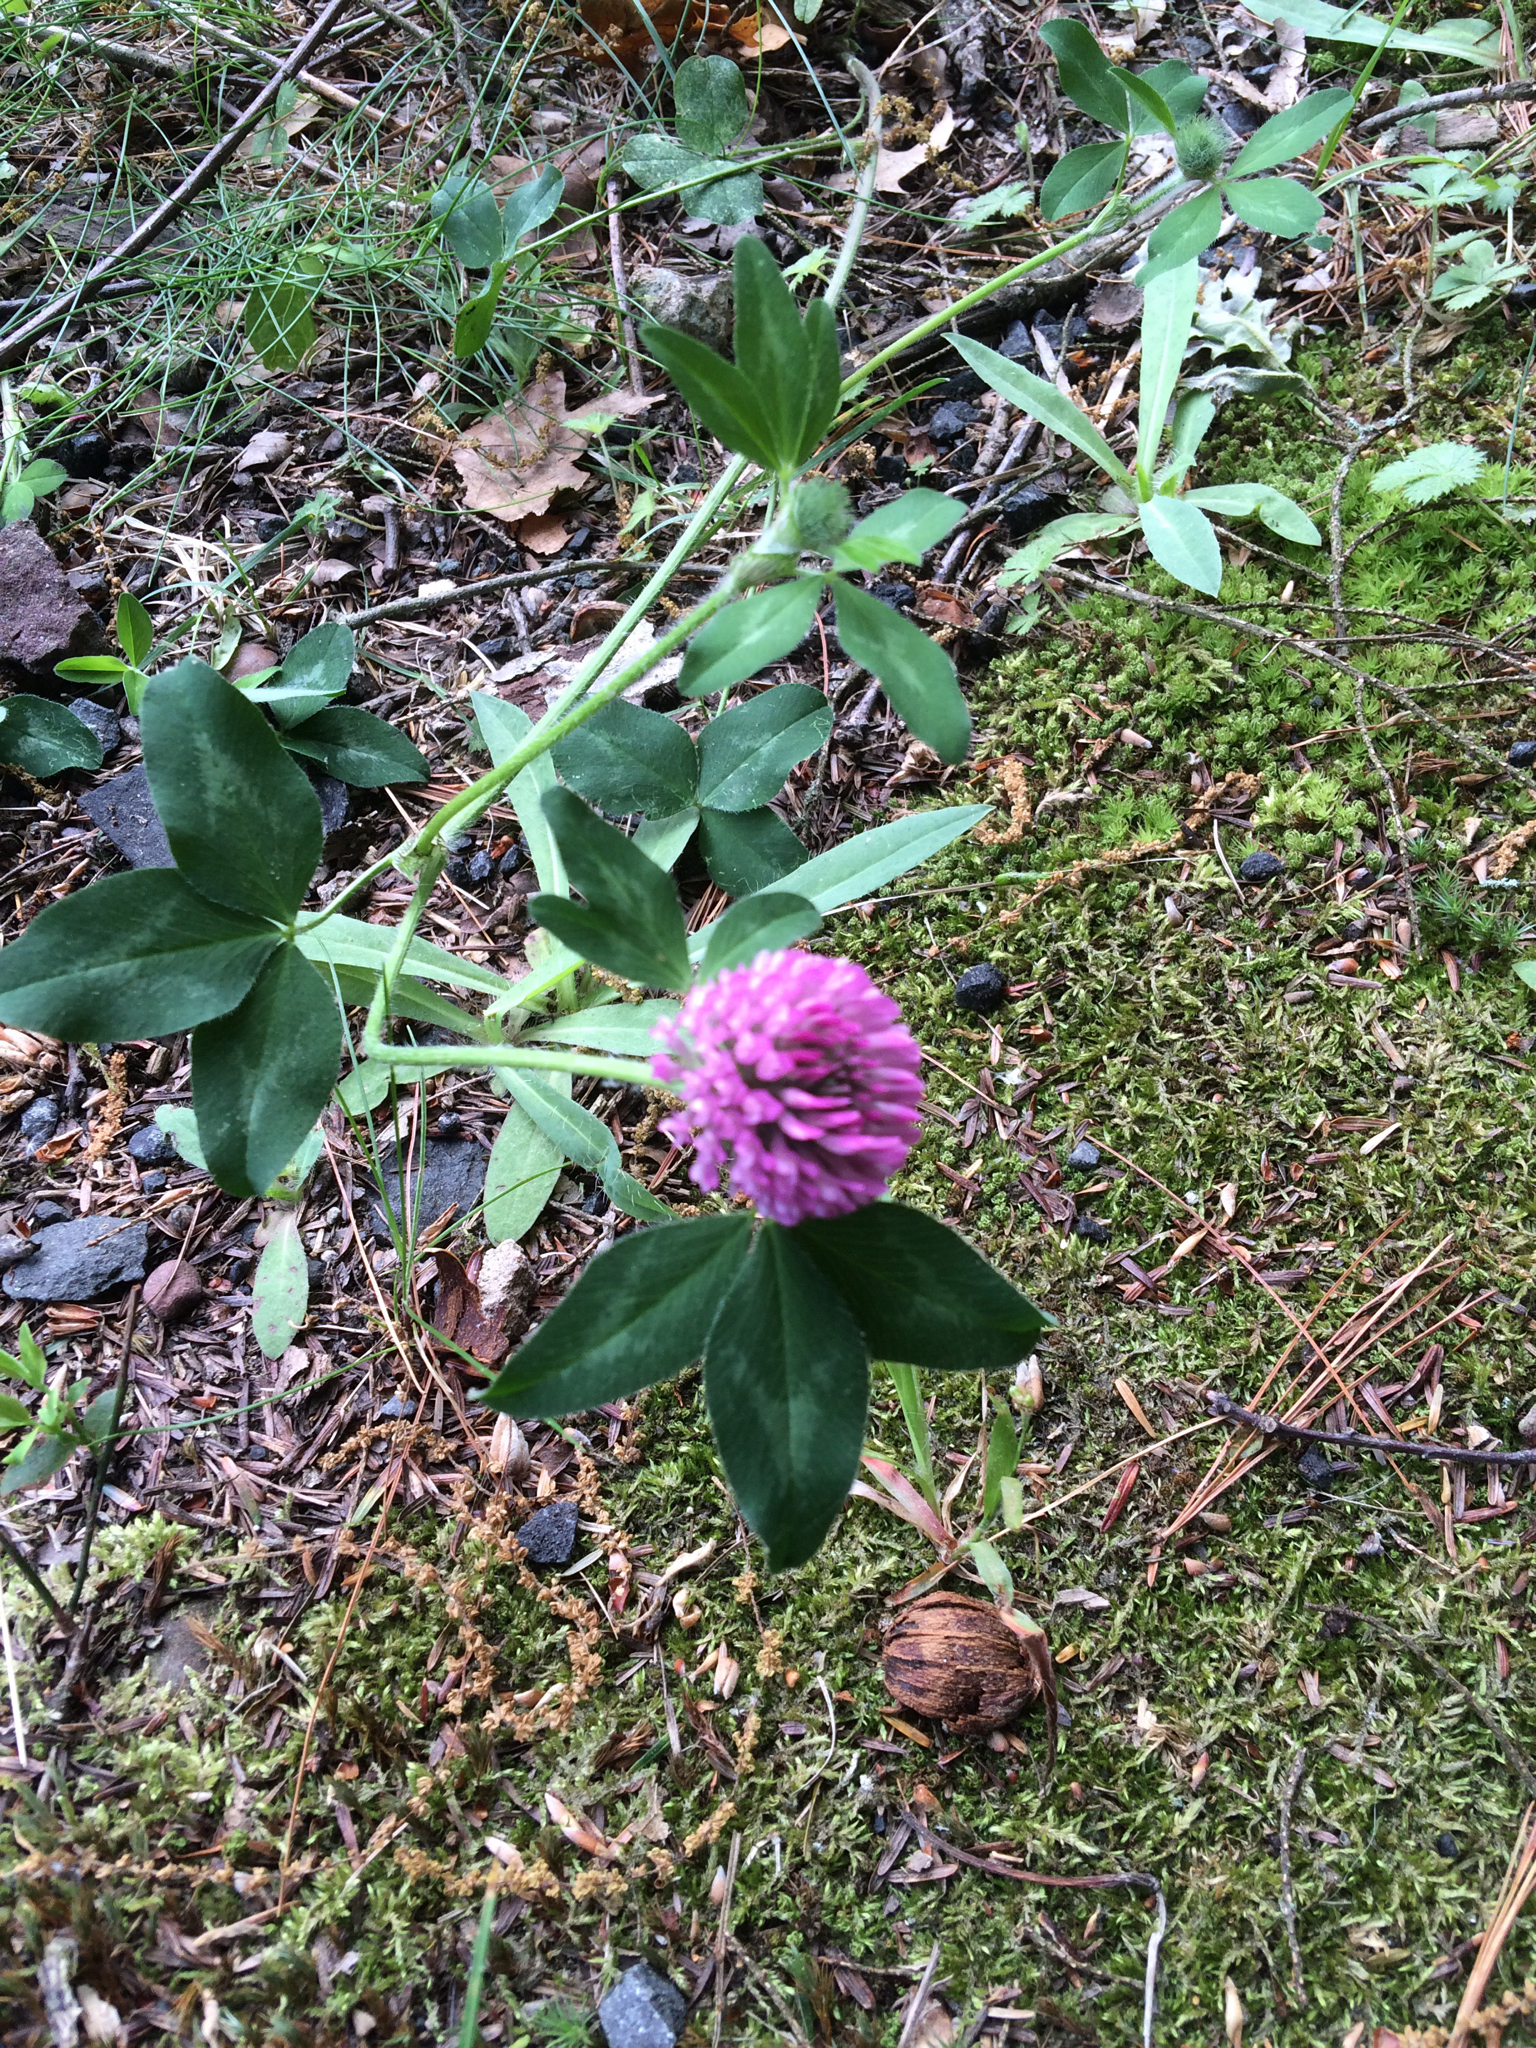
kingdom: Plantae
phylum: Tracheophyta
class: Magnoliopsida
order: Fabales
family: Fabaceae
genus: Trifolium
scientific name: Trifolium pratense
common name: Red clover
